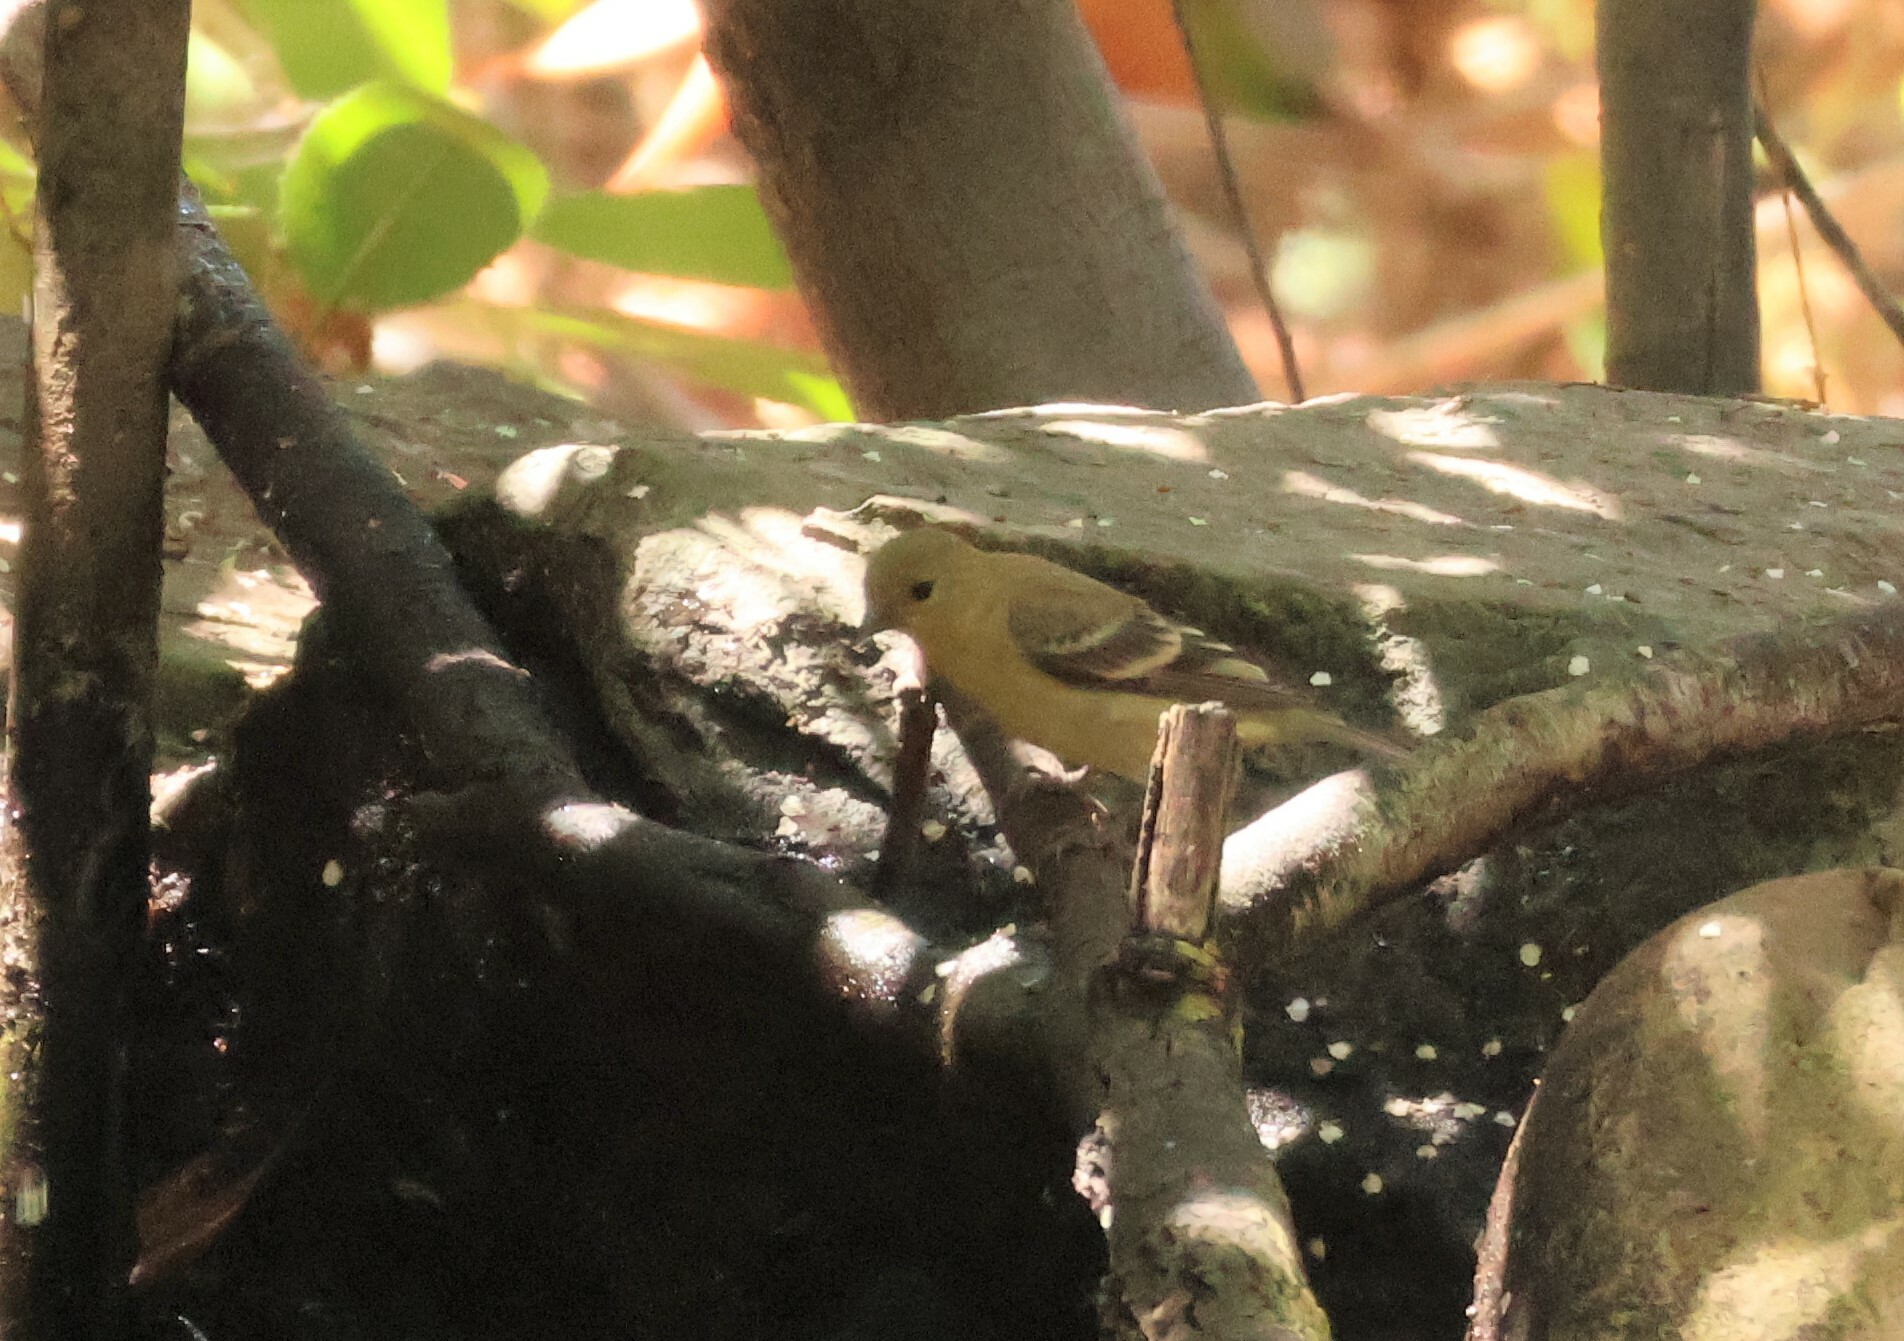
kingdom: Animalia
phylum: Chordata
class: Aves
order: Passeriformes
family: Fringillidae
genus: Spinus
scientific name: Spinus psaltria
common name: Lesser goldfinch
